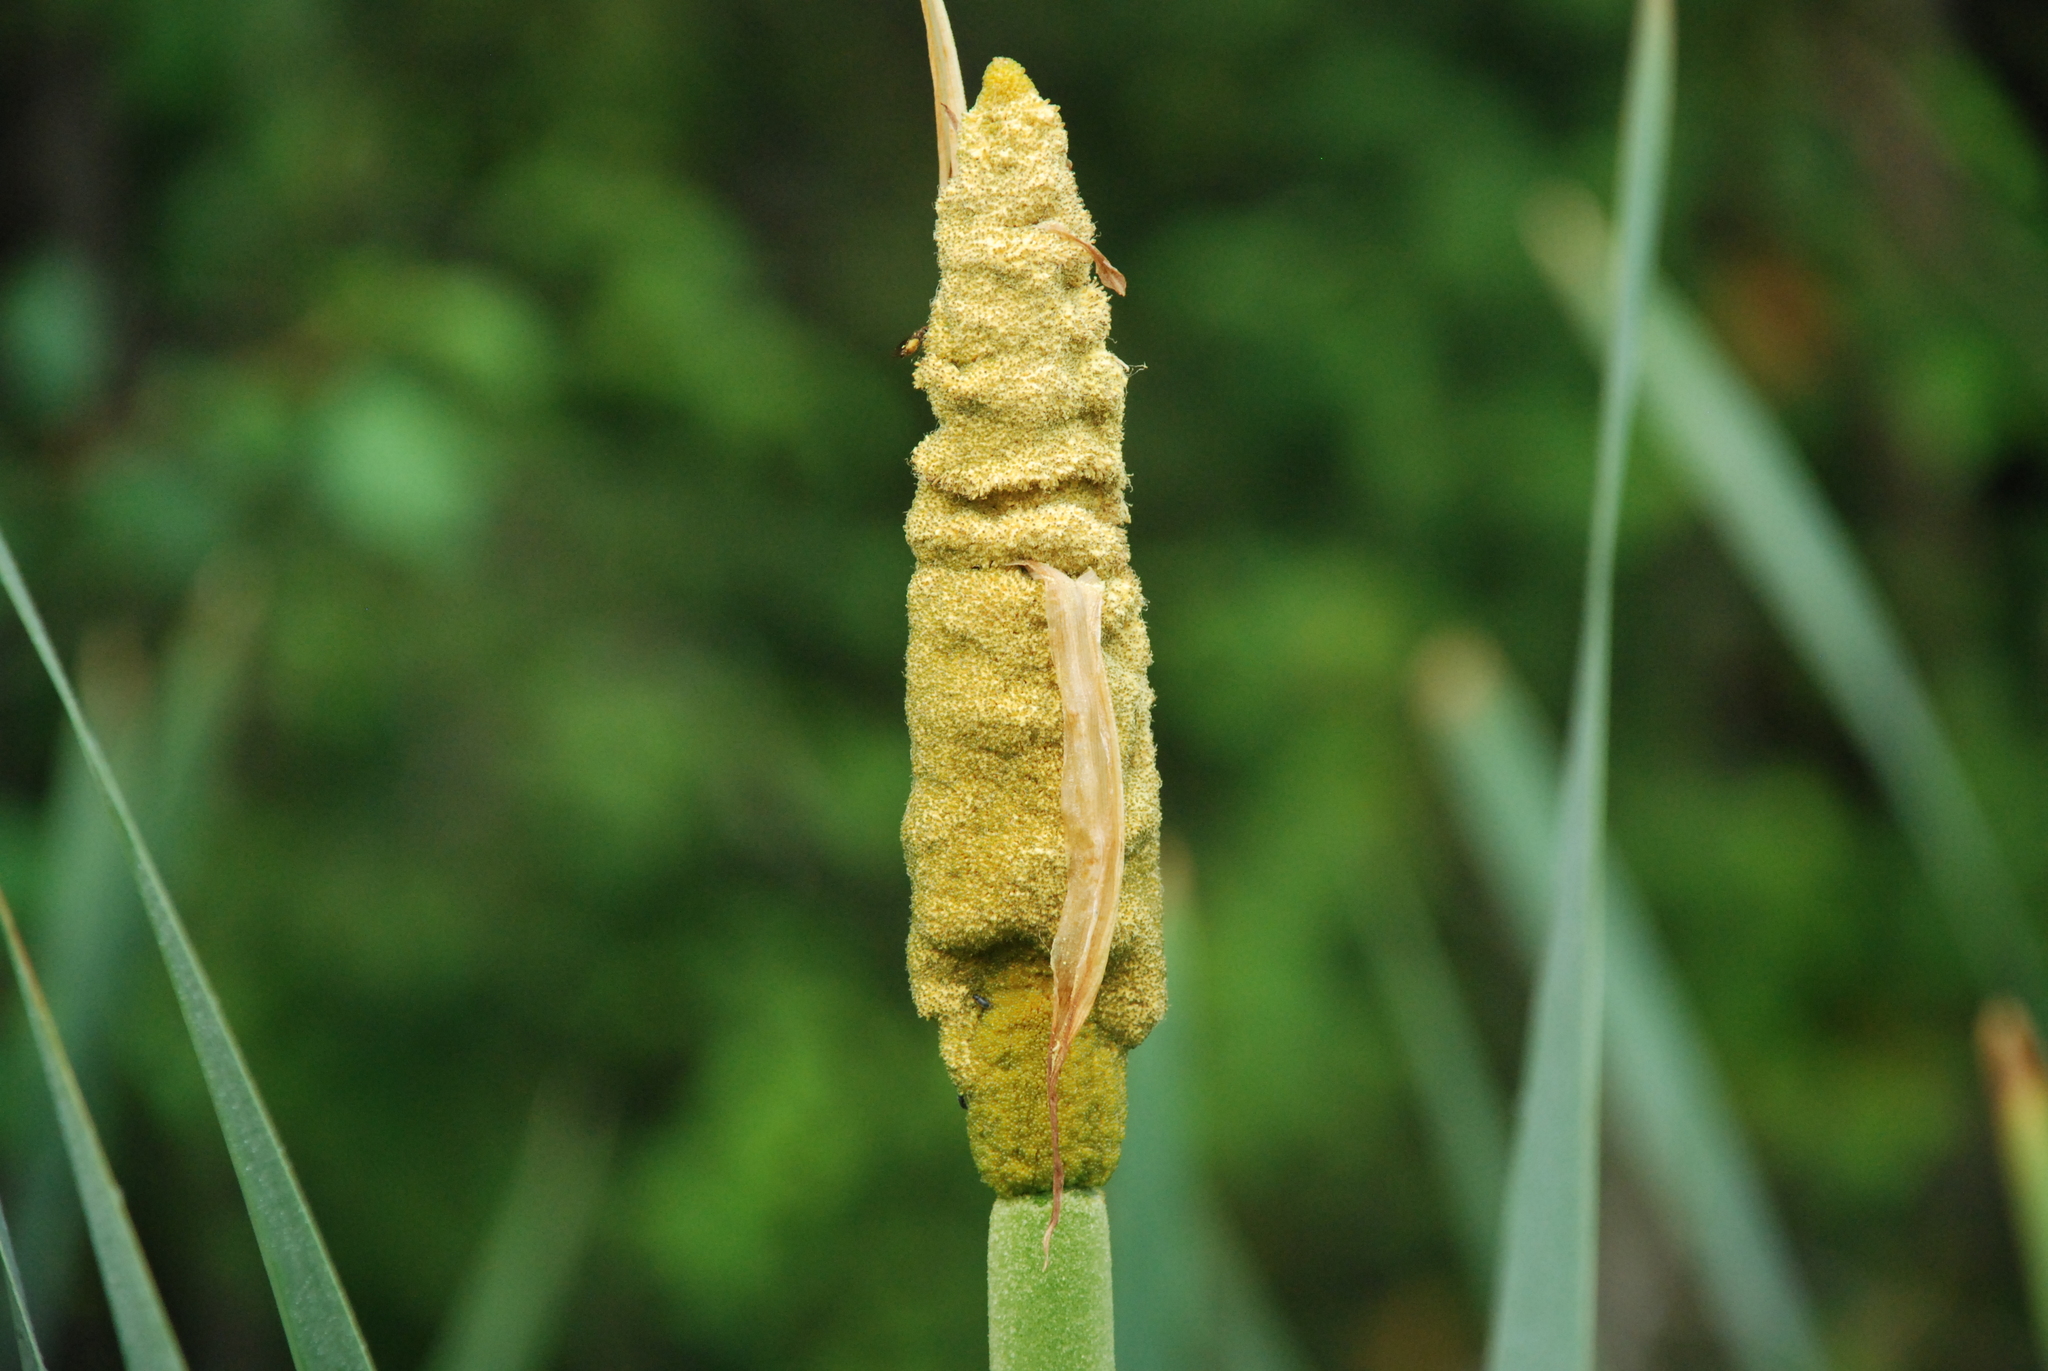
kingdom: Plantae
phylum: Tracheophyta
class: Liliopsida
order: Poales
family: Typhaceae
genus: Typha
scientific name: Typha latifolia
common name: Broadleaf cattail
